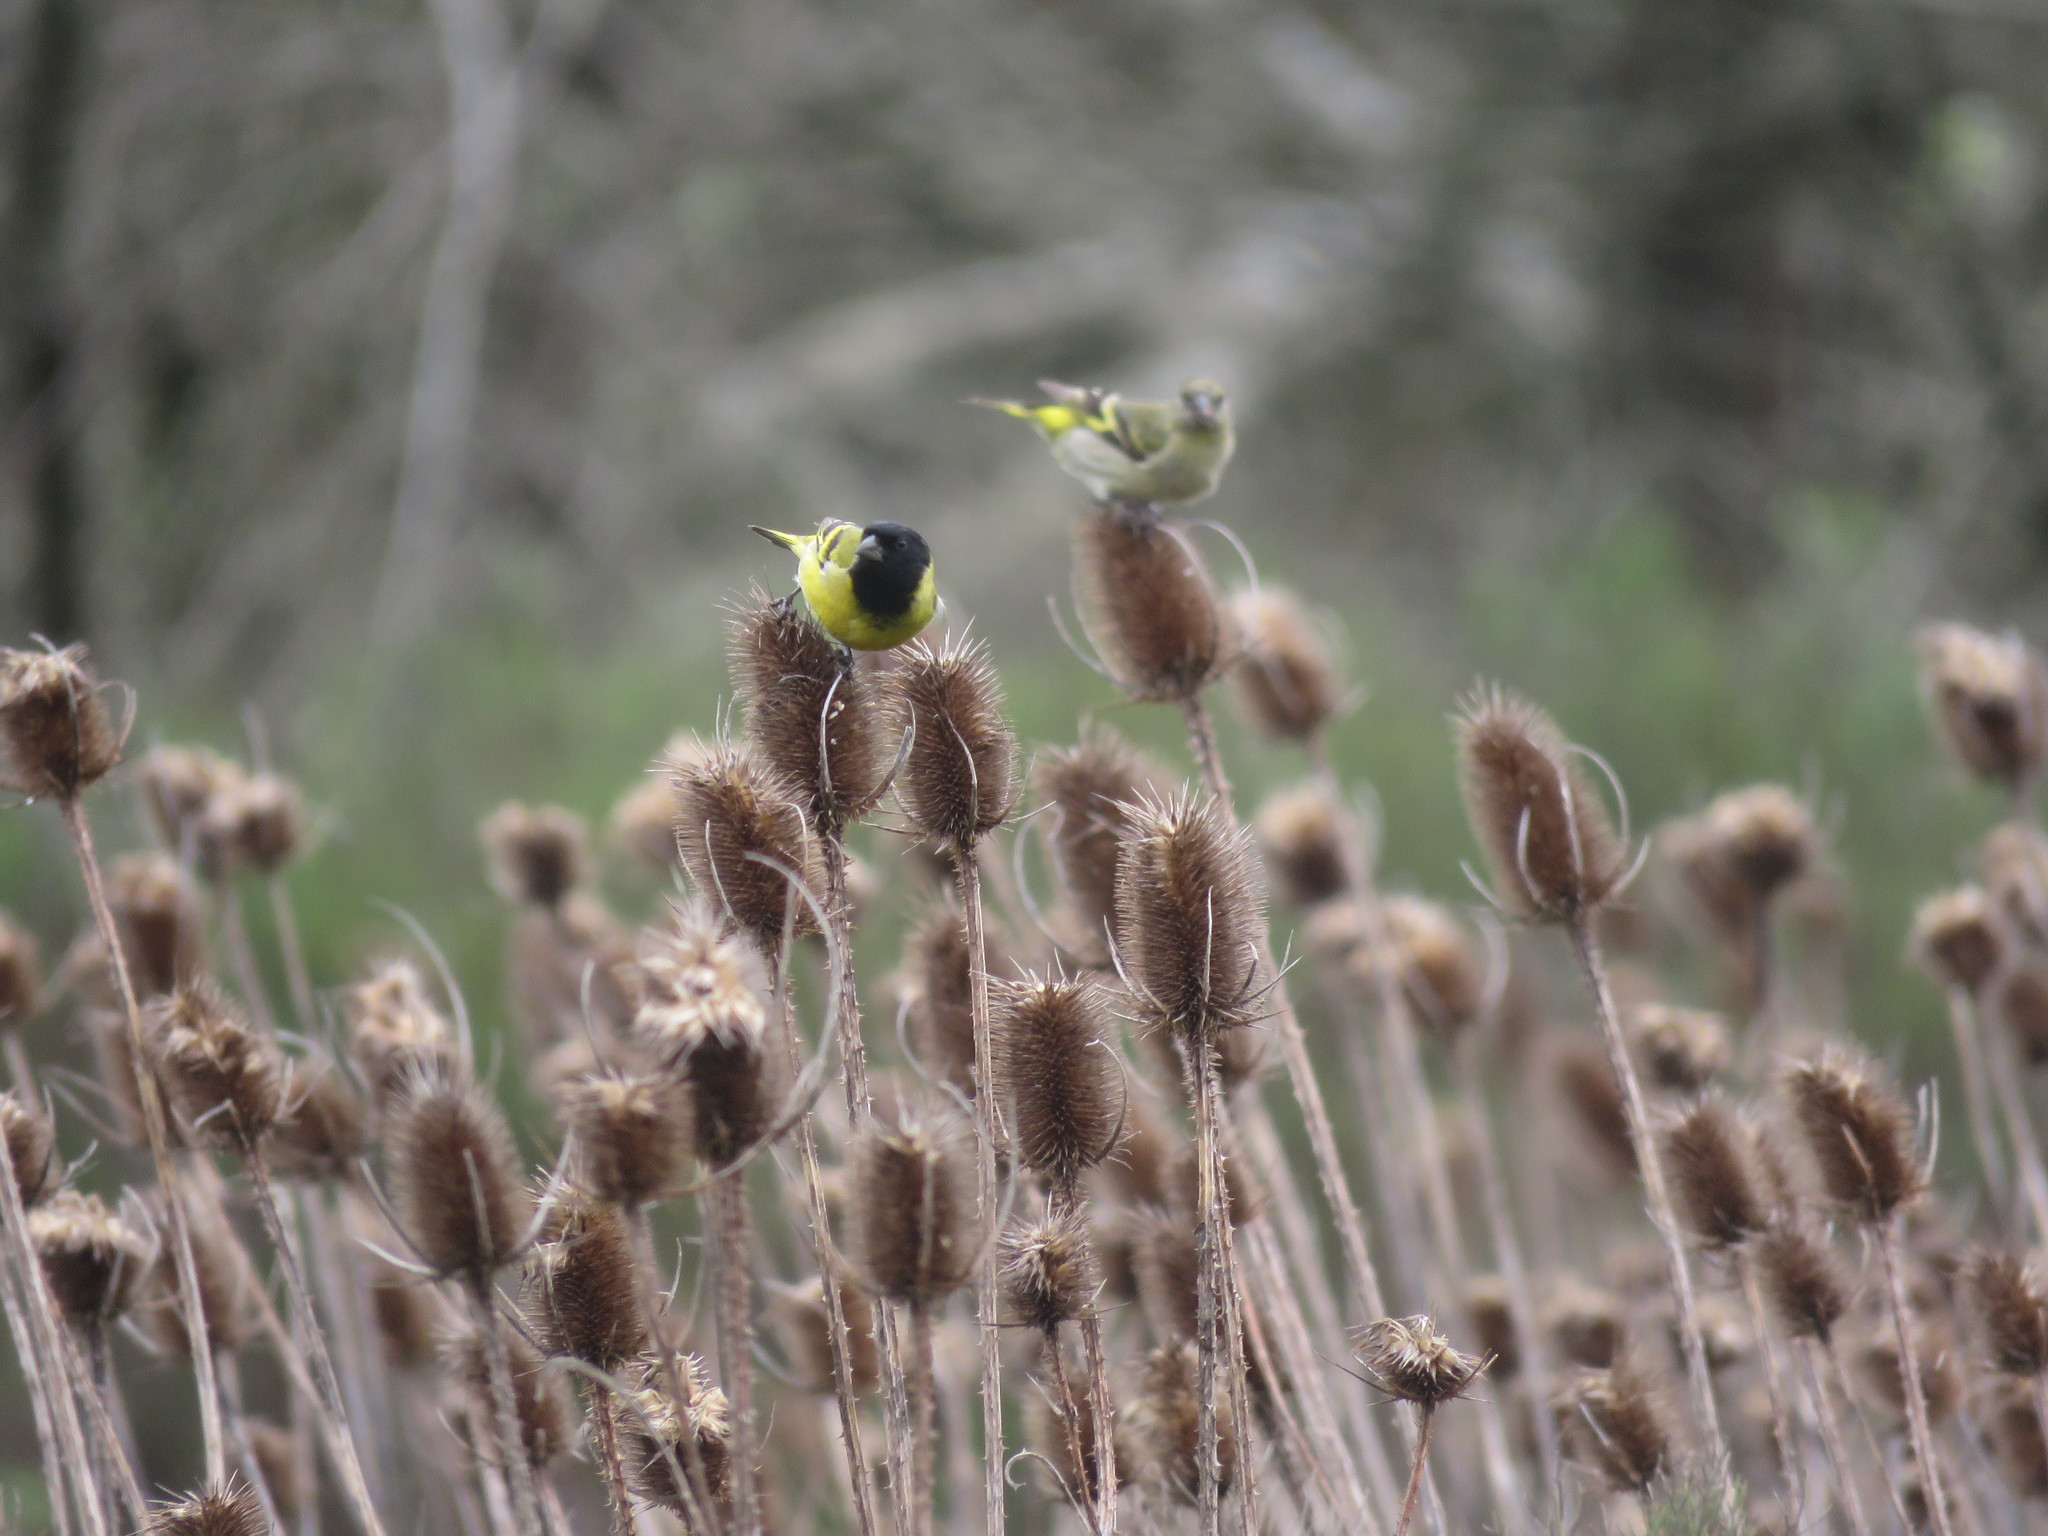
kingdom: Animalia
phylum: Chordata
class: Aves
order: Passeriformes
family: Fringillidae
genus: Spinus
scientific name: Spinus magellanicus
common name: Hooded siskin
